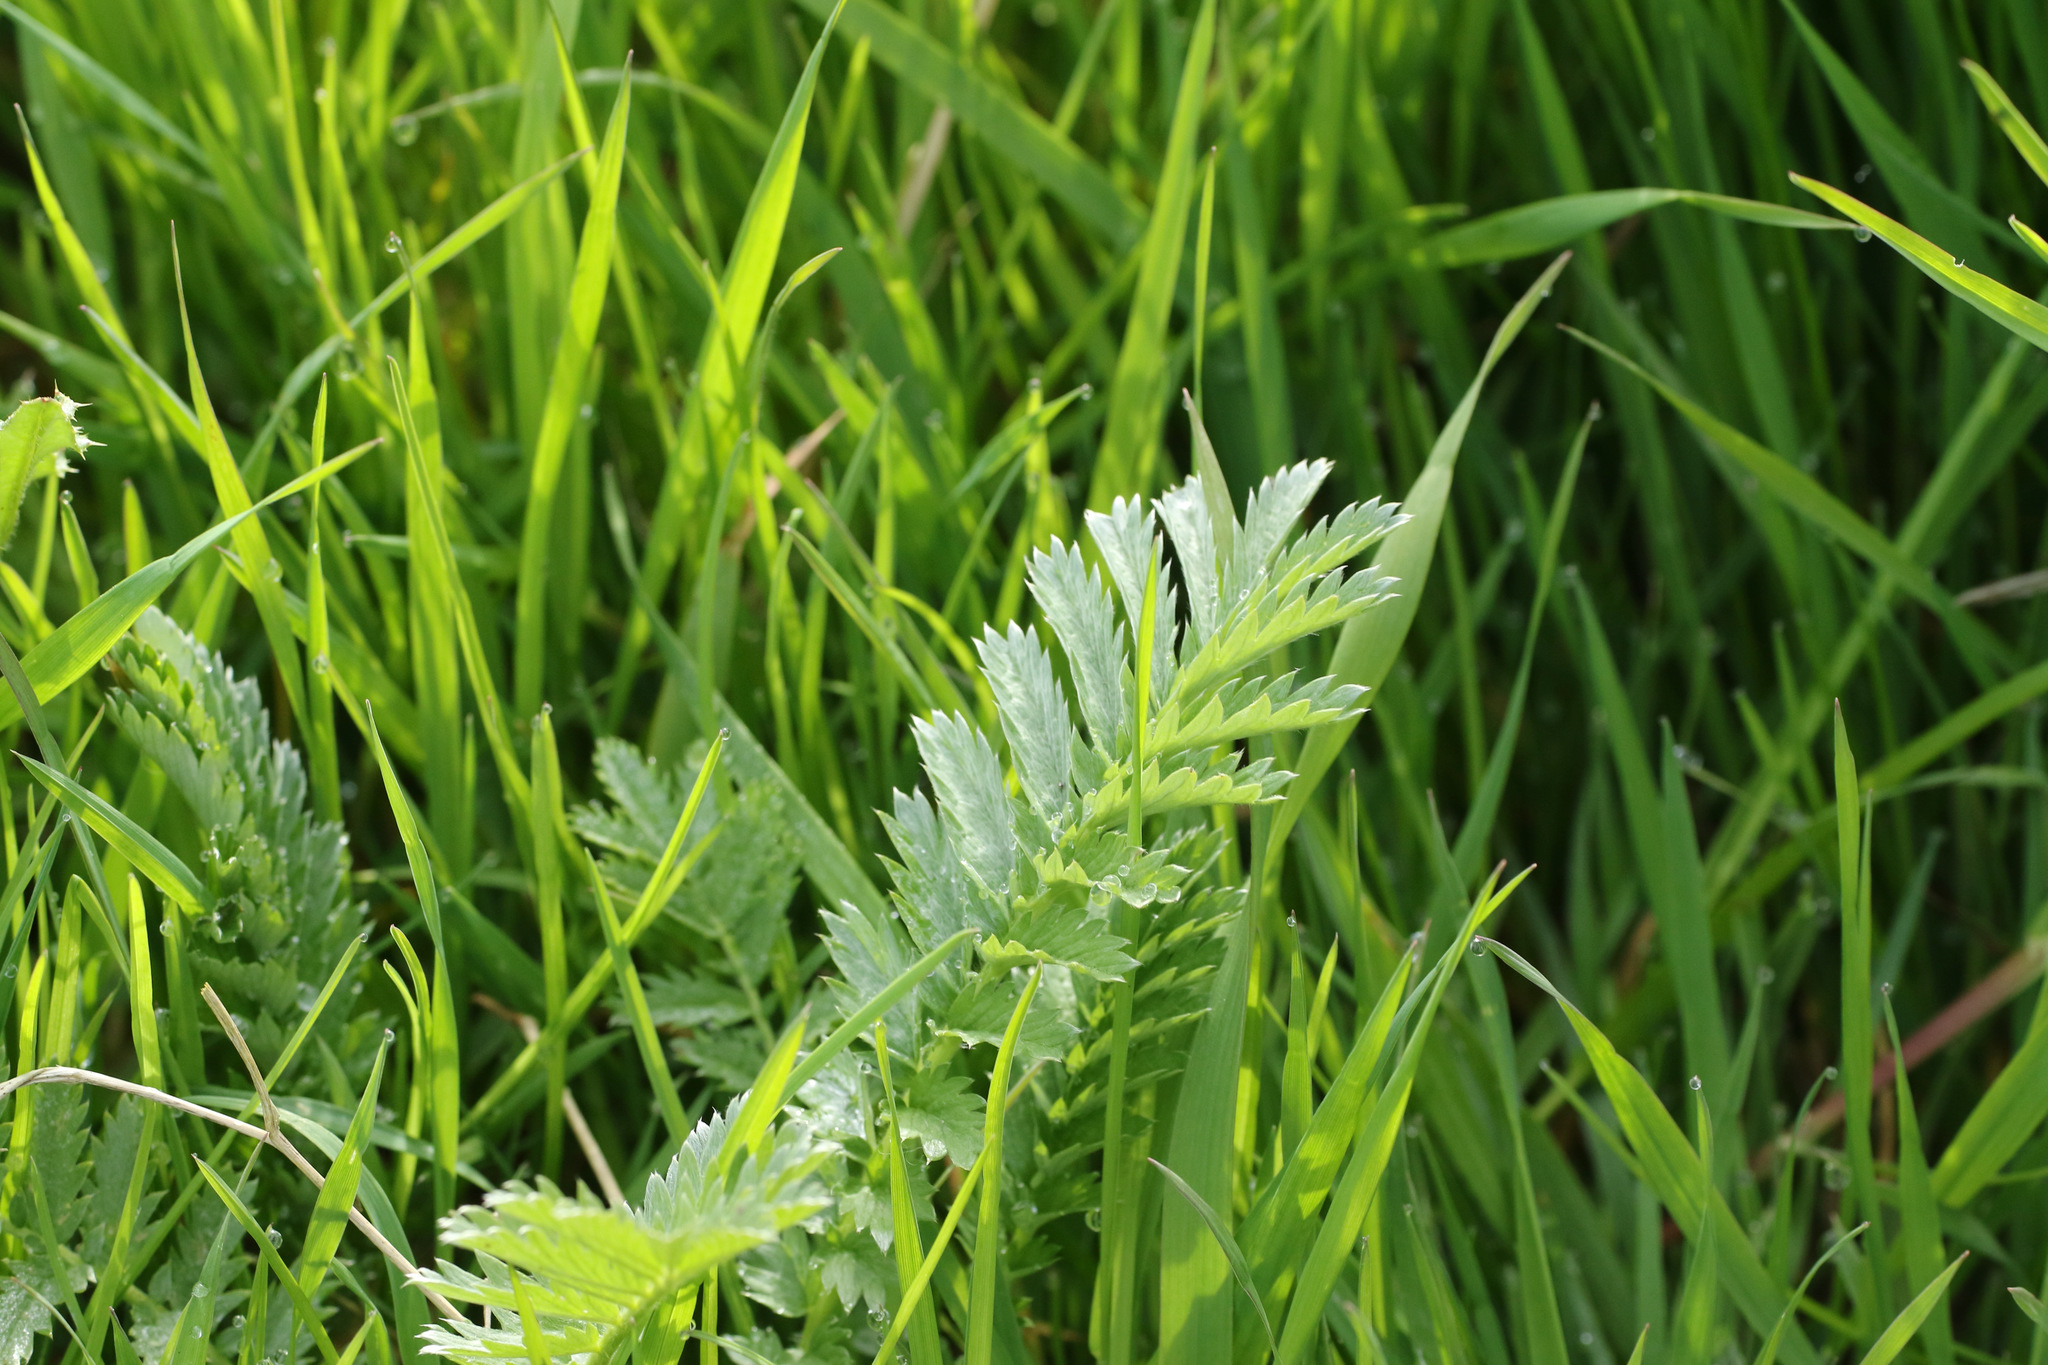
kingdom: Plantae
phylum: Tracheophyta
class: Magnoliopsida
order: Rosales
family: Rosaceae
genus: Argentina
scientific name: Argentina anserina
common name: Common silverweed
